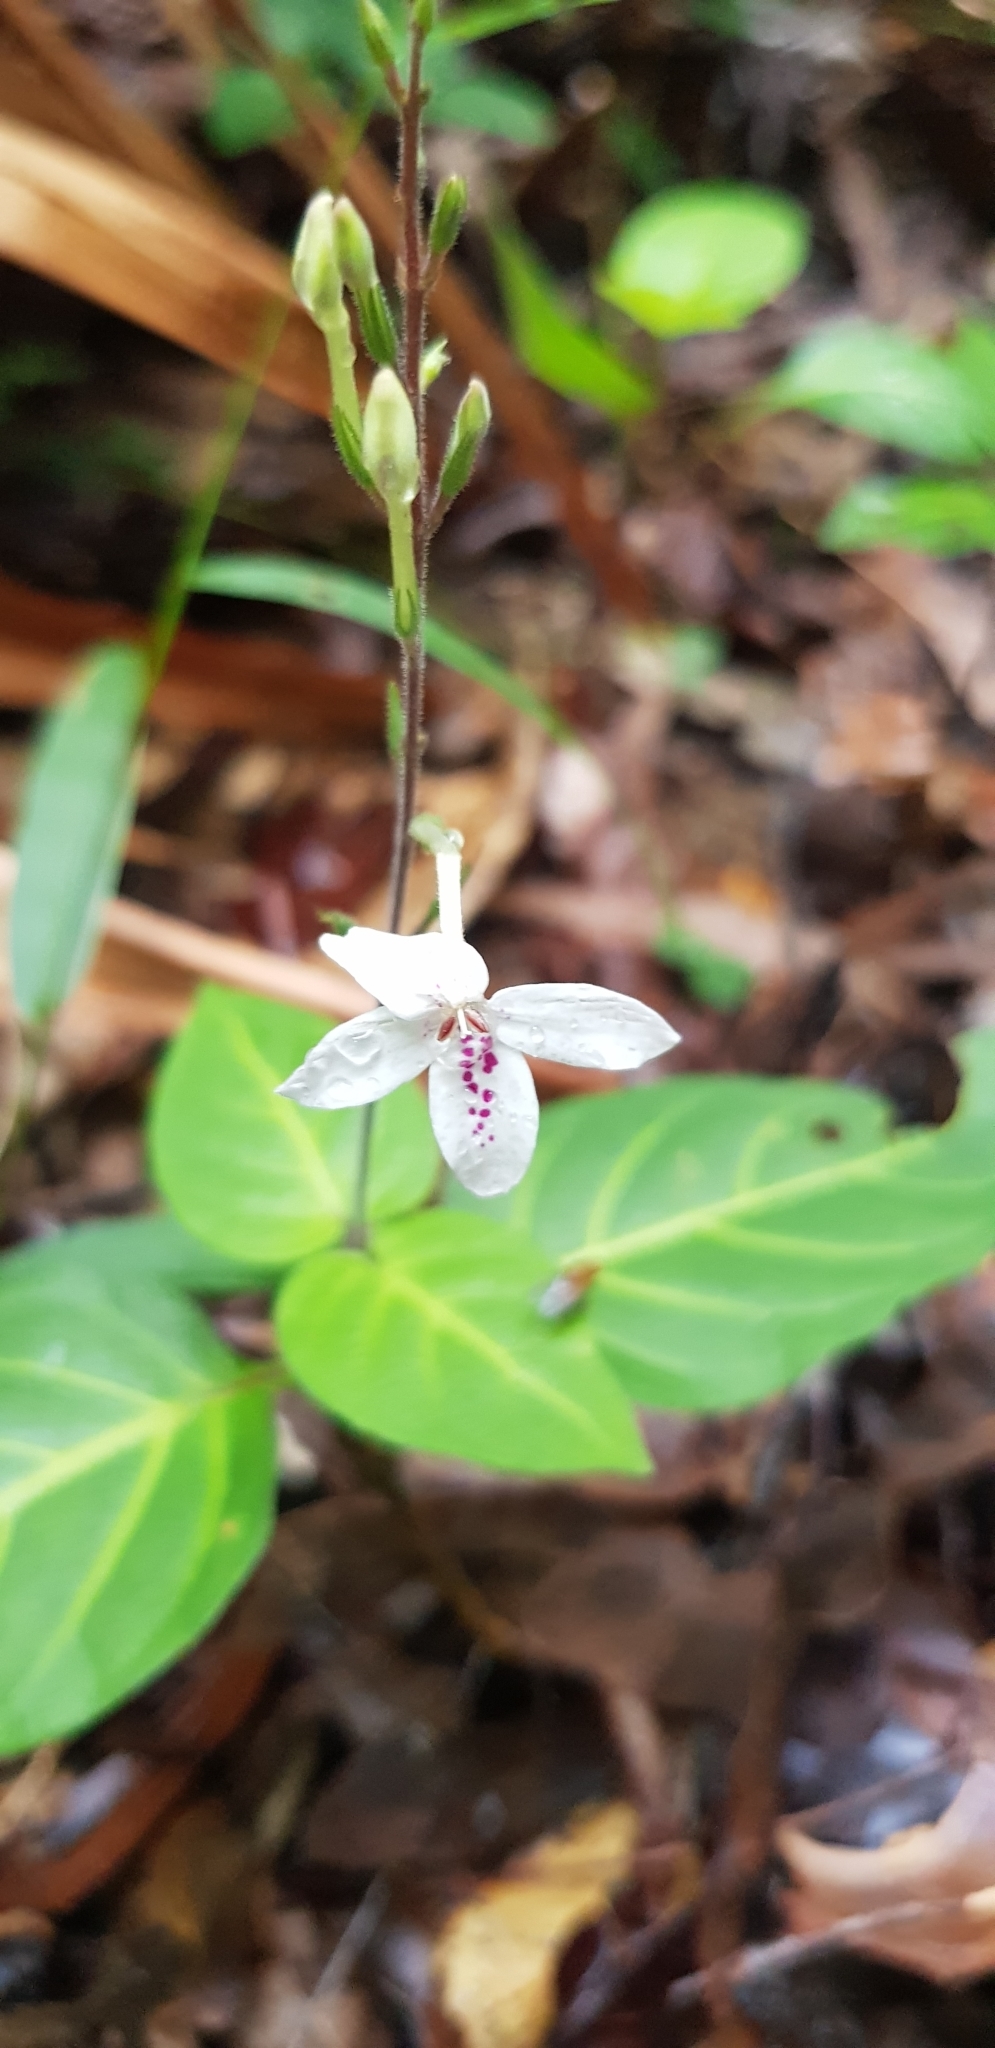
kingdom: Plantae
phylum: Tracheophyta
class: Magnoliopsida
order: Lamiales
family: Acanthaceae
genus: Pseuderanthemum
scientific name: Pseuderanthemum variabile
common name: Night and afternoon
